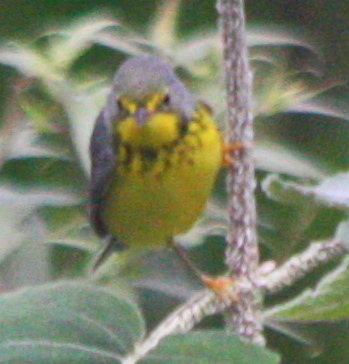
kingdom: Animalia
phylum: Chordata
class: Aves
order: Passeriformes
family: Parulidae
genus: Cardellina
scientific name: Cardellina canadensis
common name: Canada warbler
